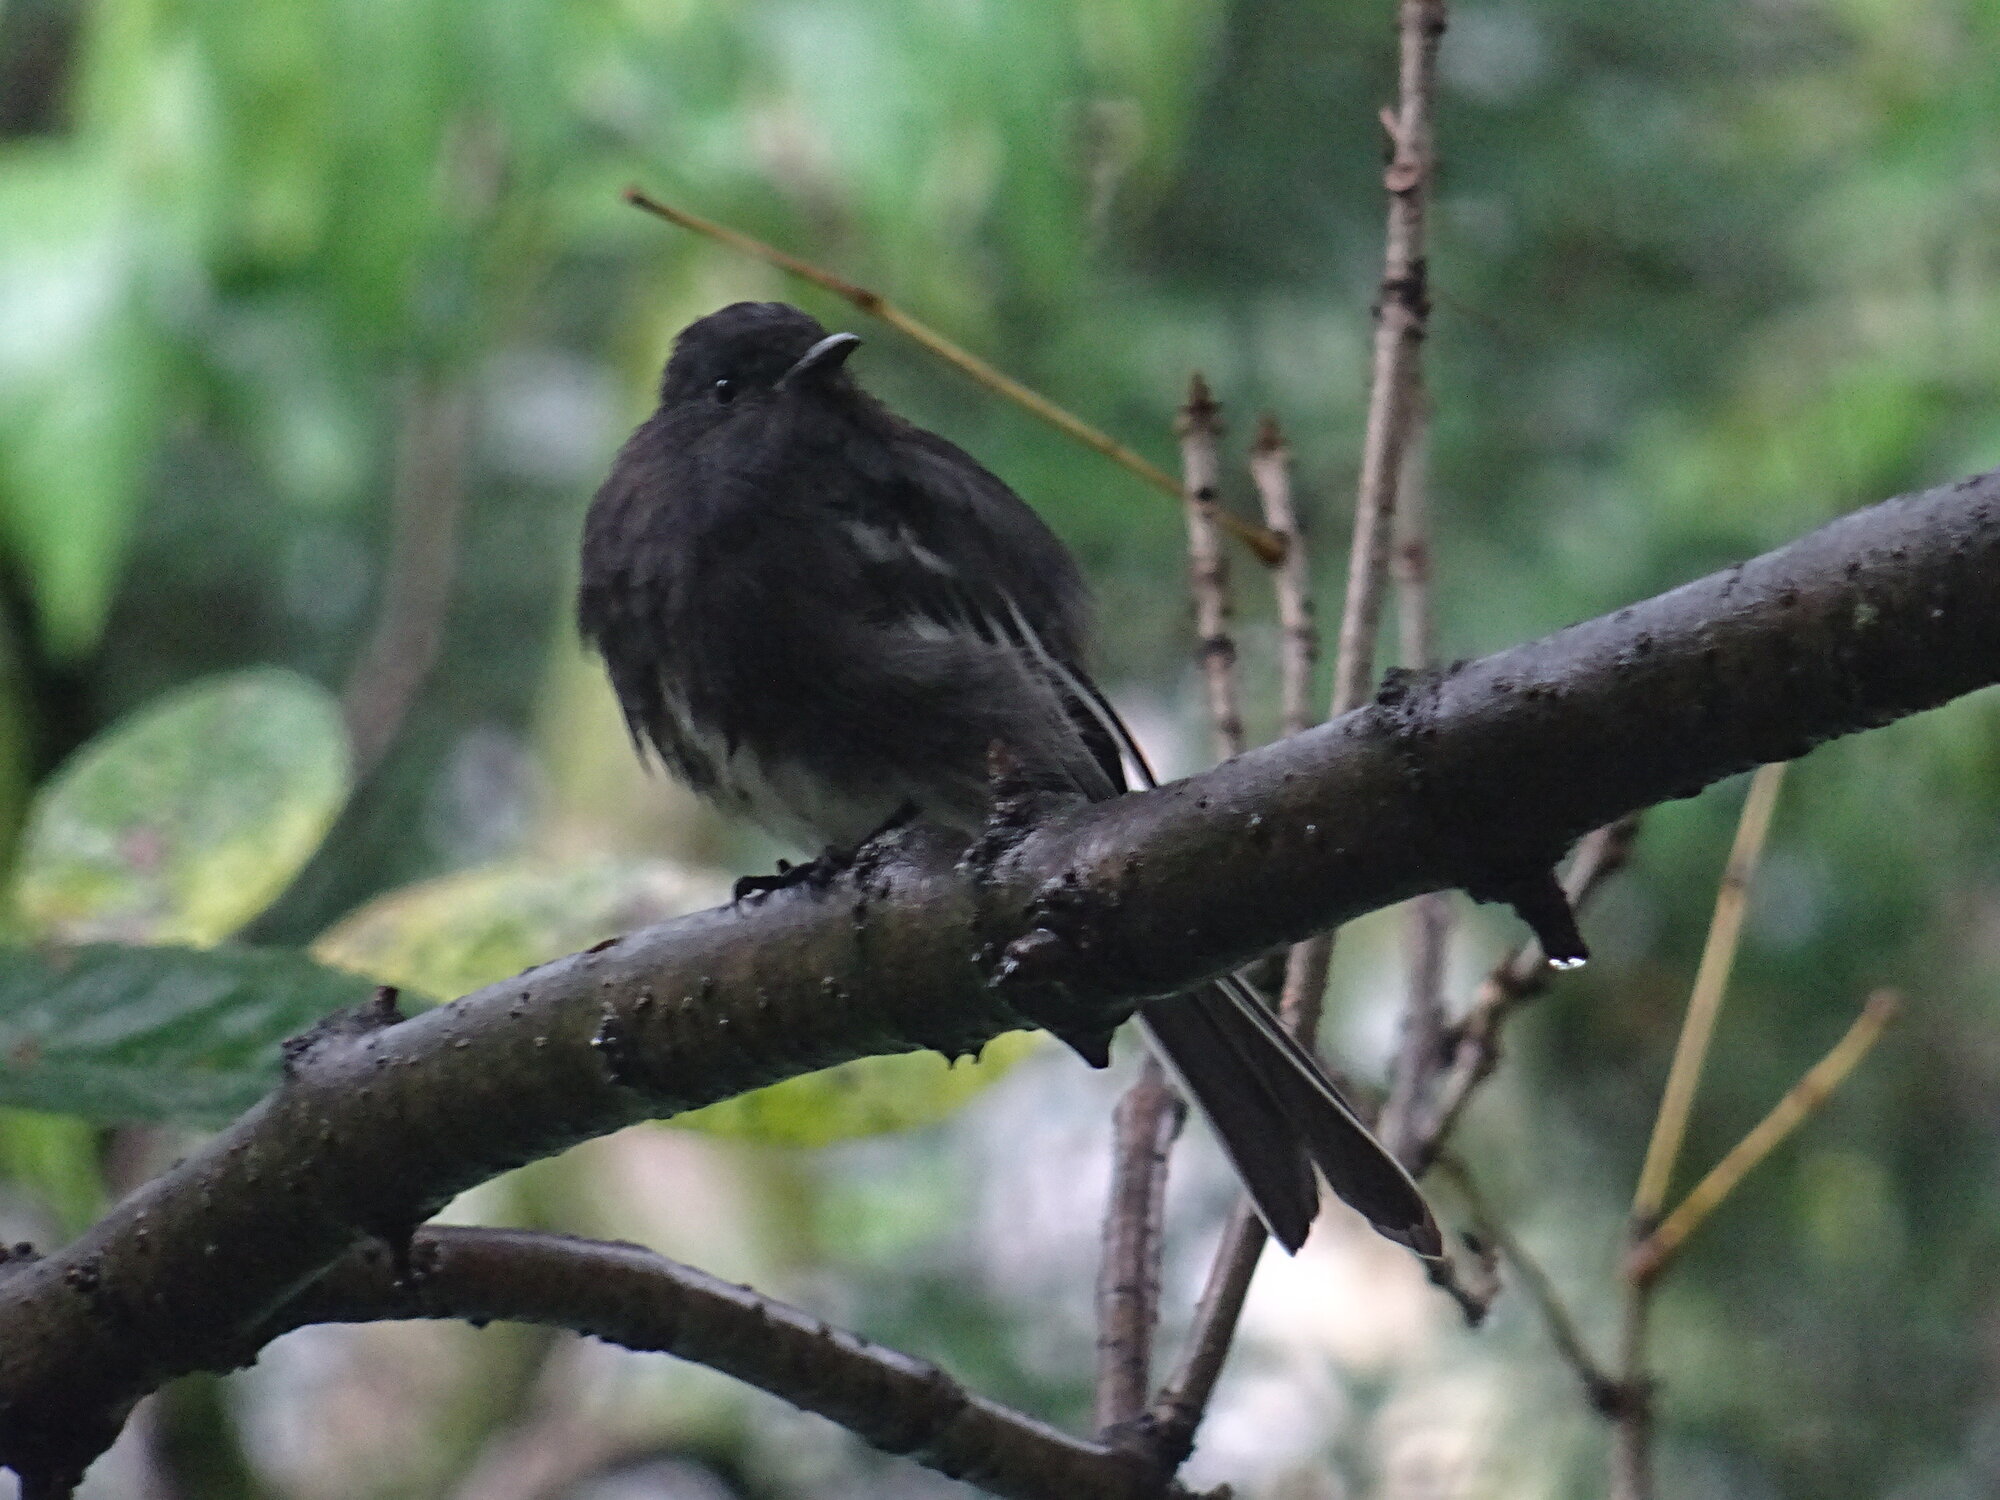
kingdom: Animalia
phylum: Chordata
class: Aves
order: Passeriformes
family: Tyrannidae
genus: Sayornis
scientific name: Sayornis nigricans
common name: Black phoebe
